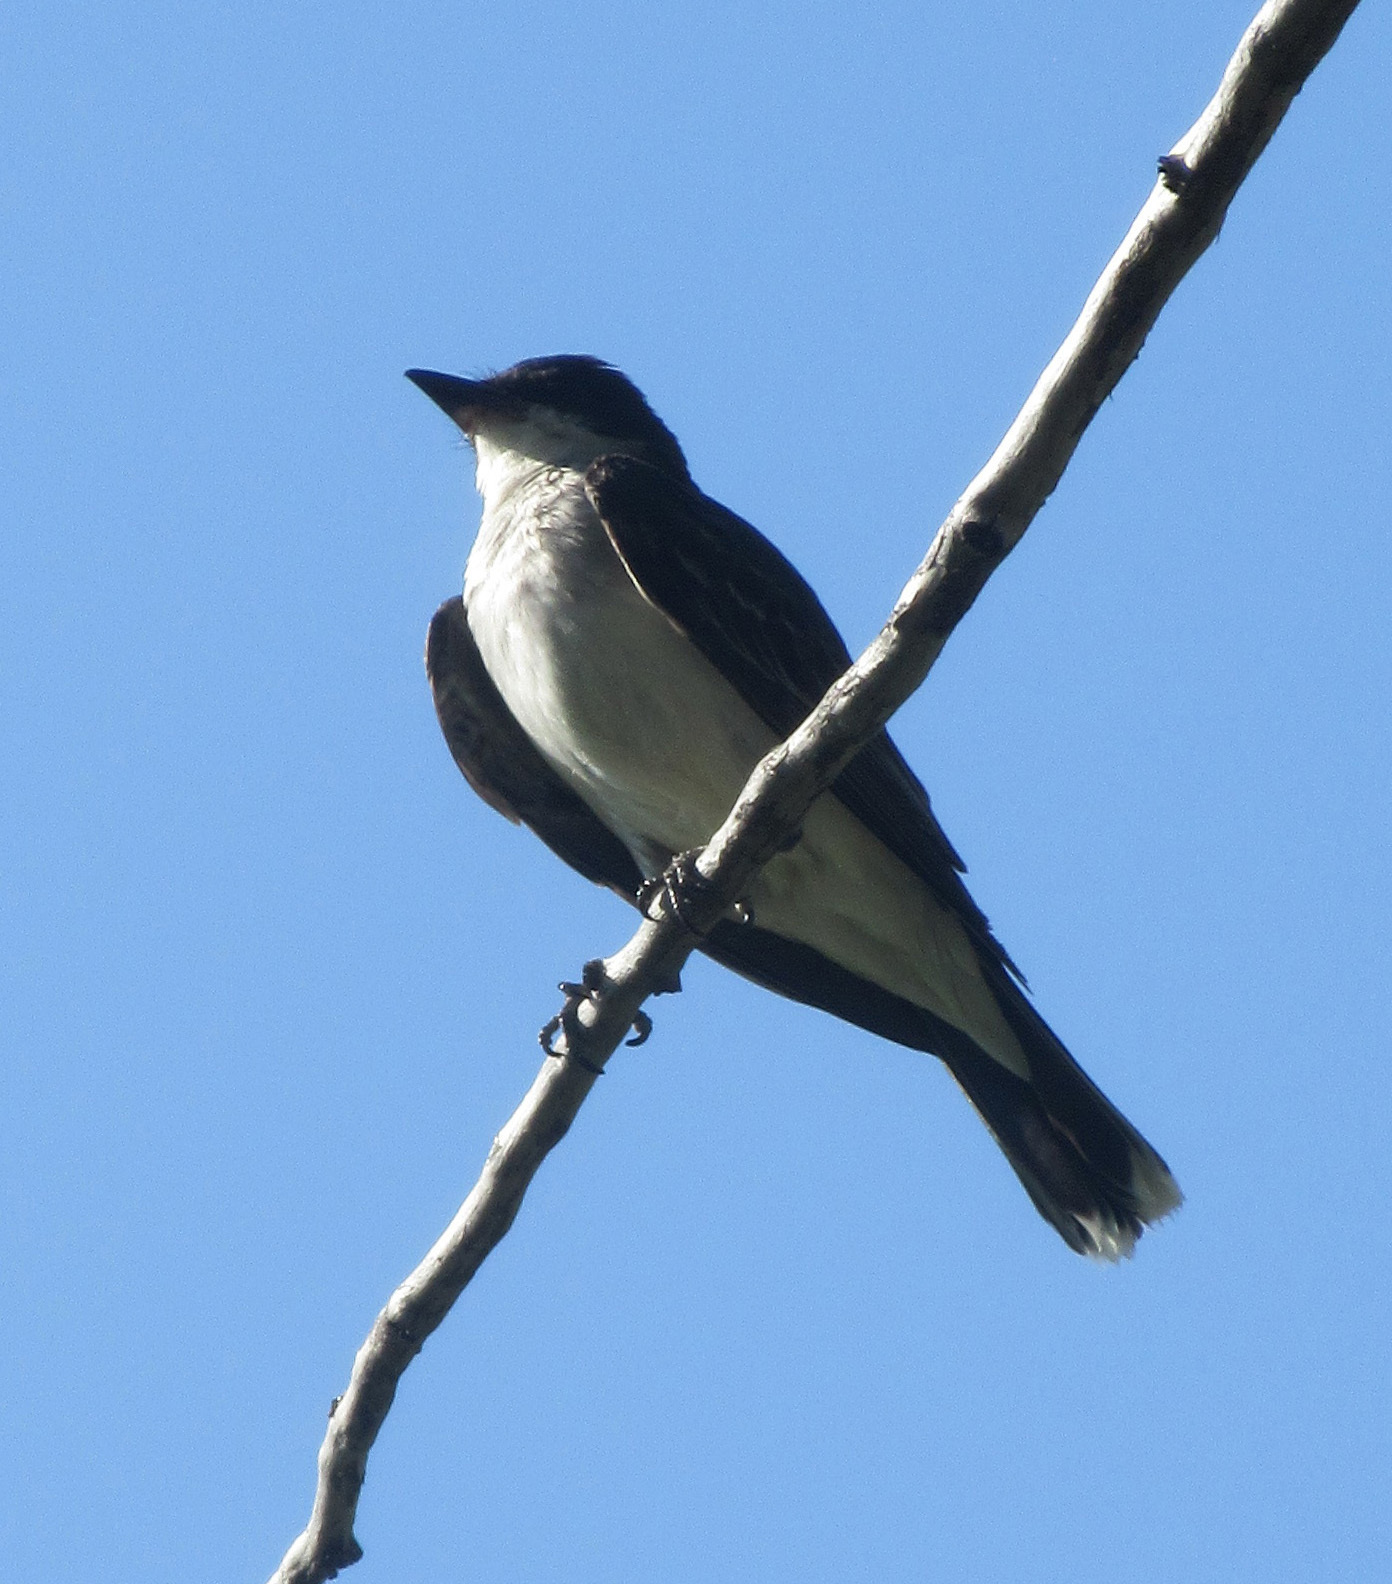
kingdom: Animalia
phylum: Chordata
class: Aves
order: Passeriformes
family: Tyrannidae
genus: Tyrannus
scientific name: Tyrannus tyrannus
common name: Eastern kingbird
